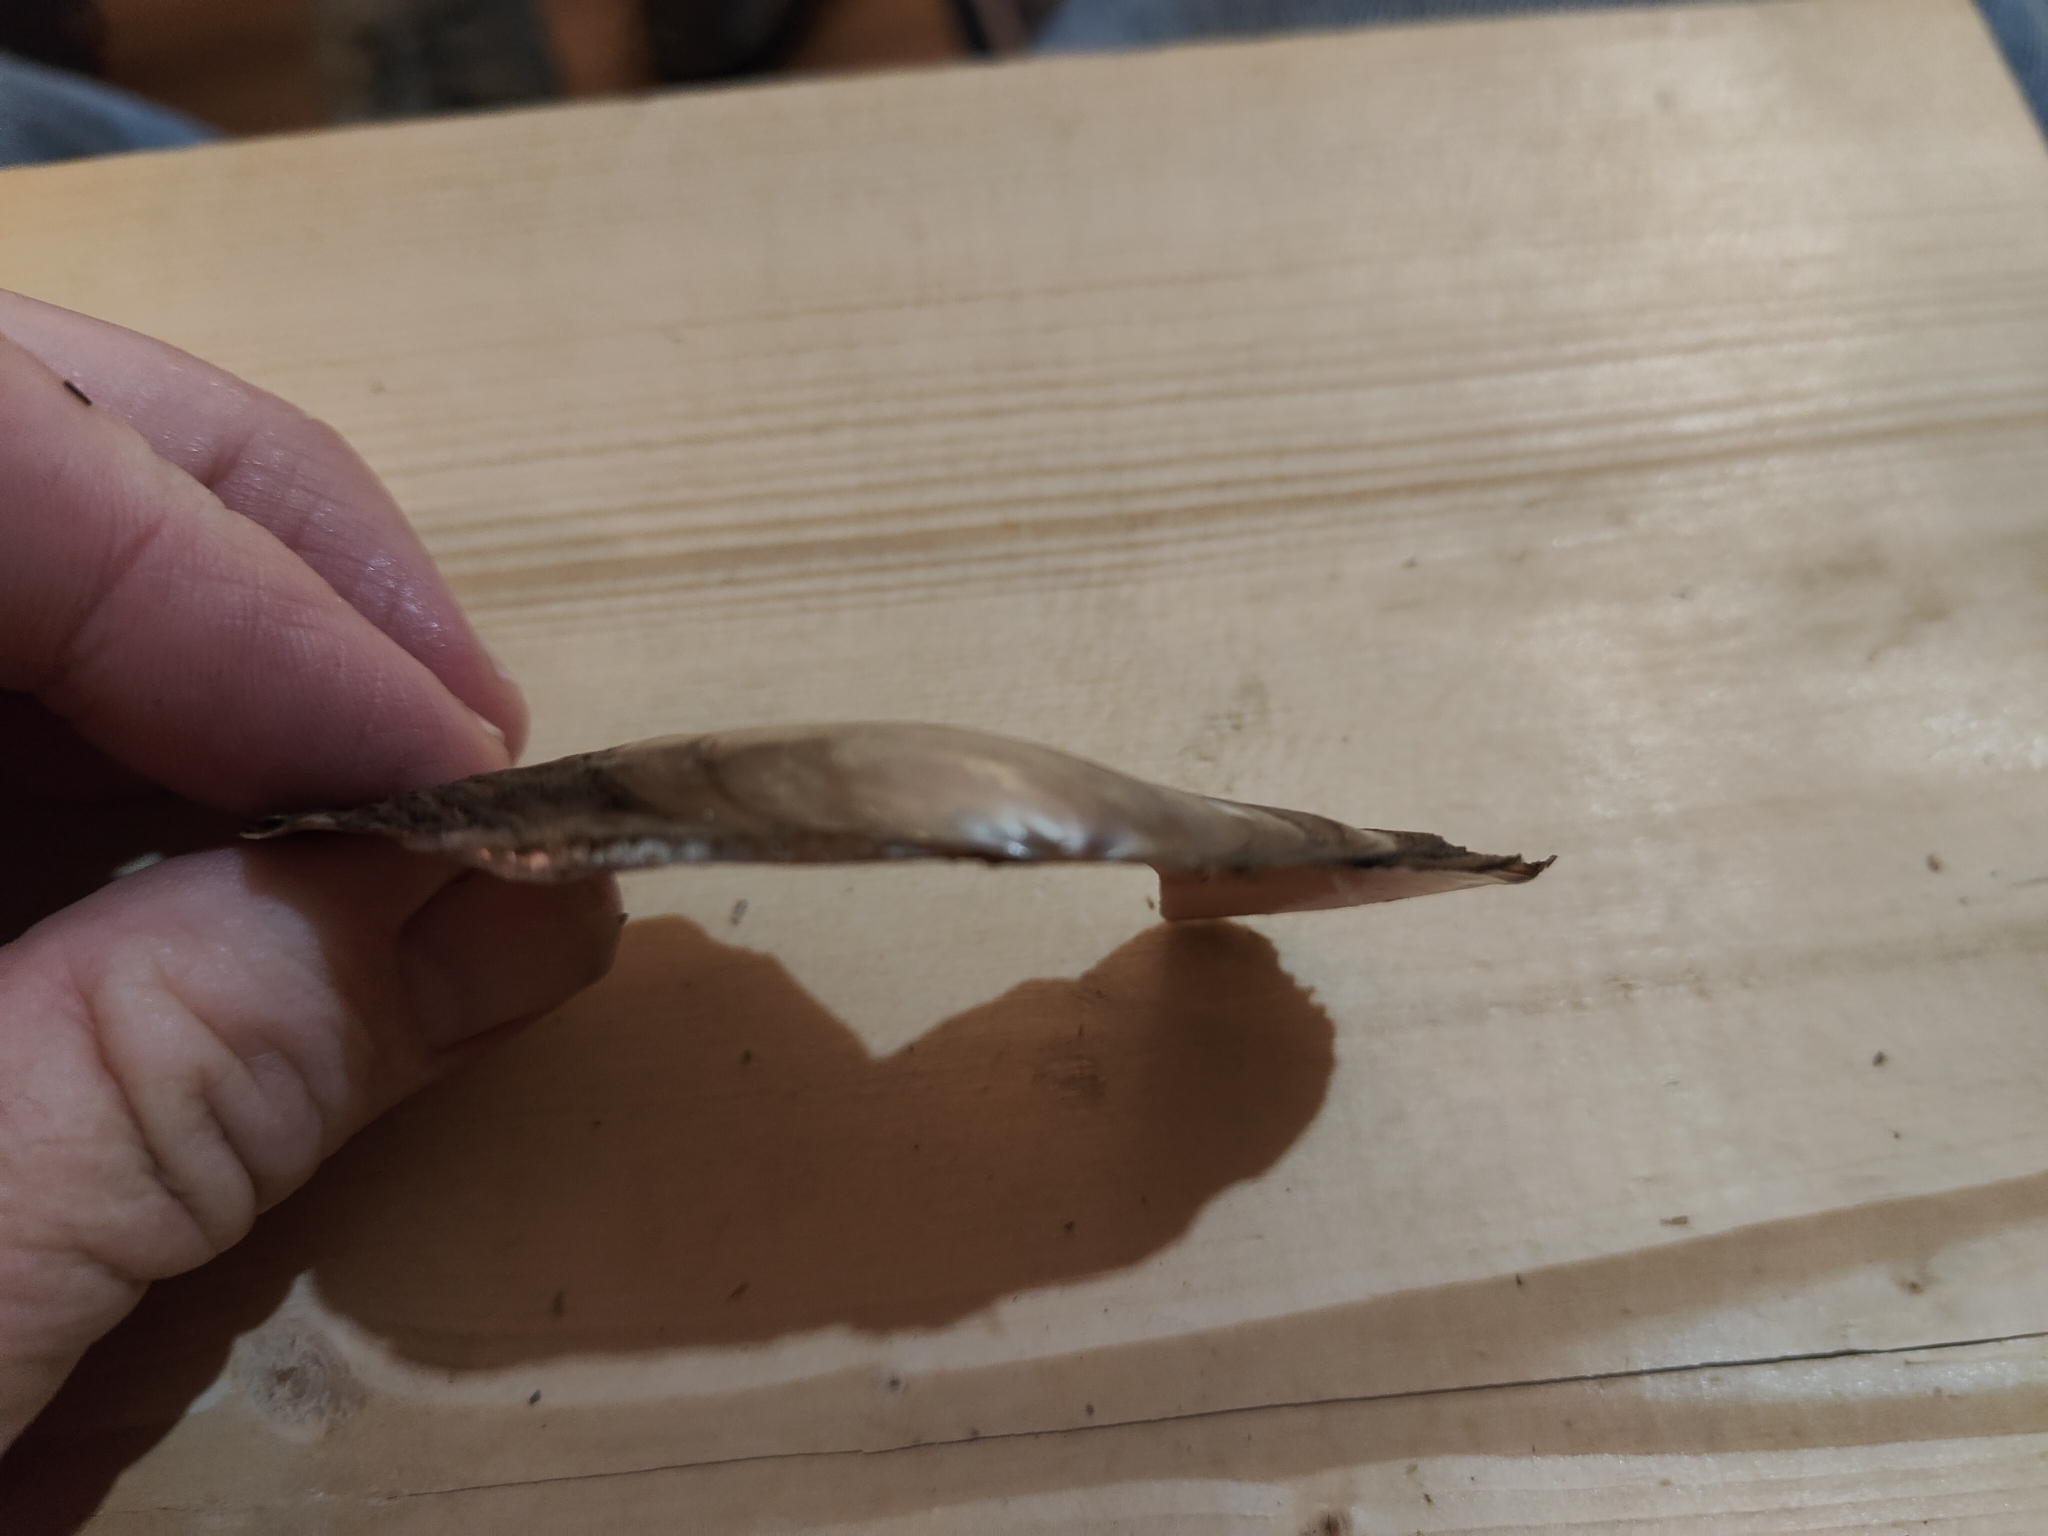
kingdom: Animalia
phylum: Mollusca
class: Bivalvia
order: Unionida
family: Unionidae
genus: Potamilus
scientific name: Potamilus ohiensis
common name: Pink papershell
